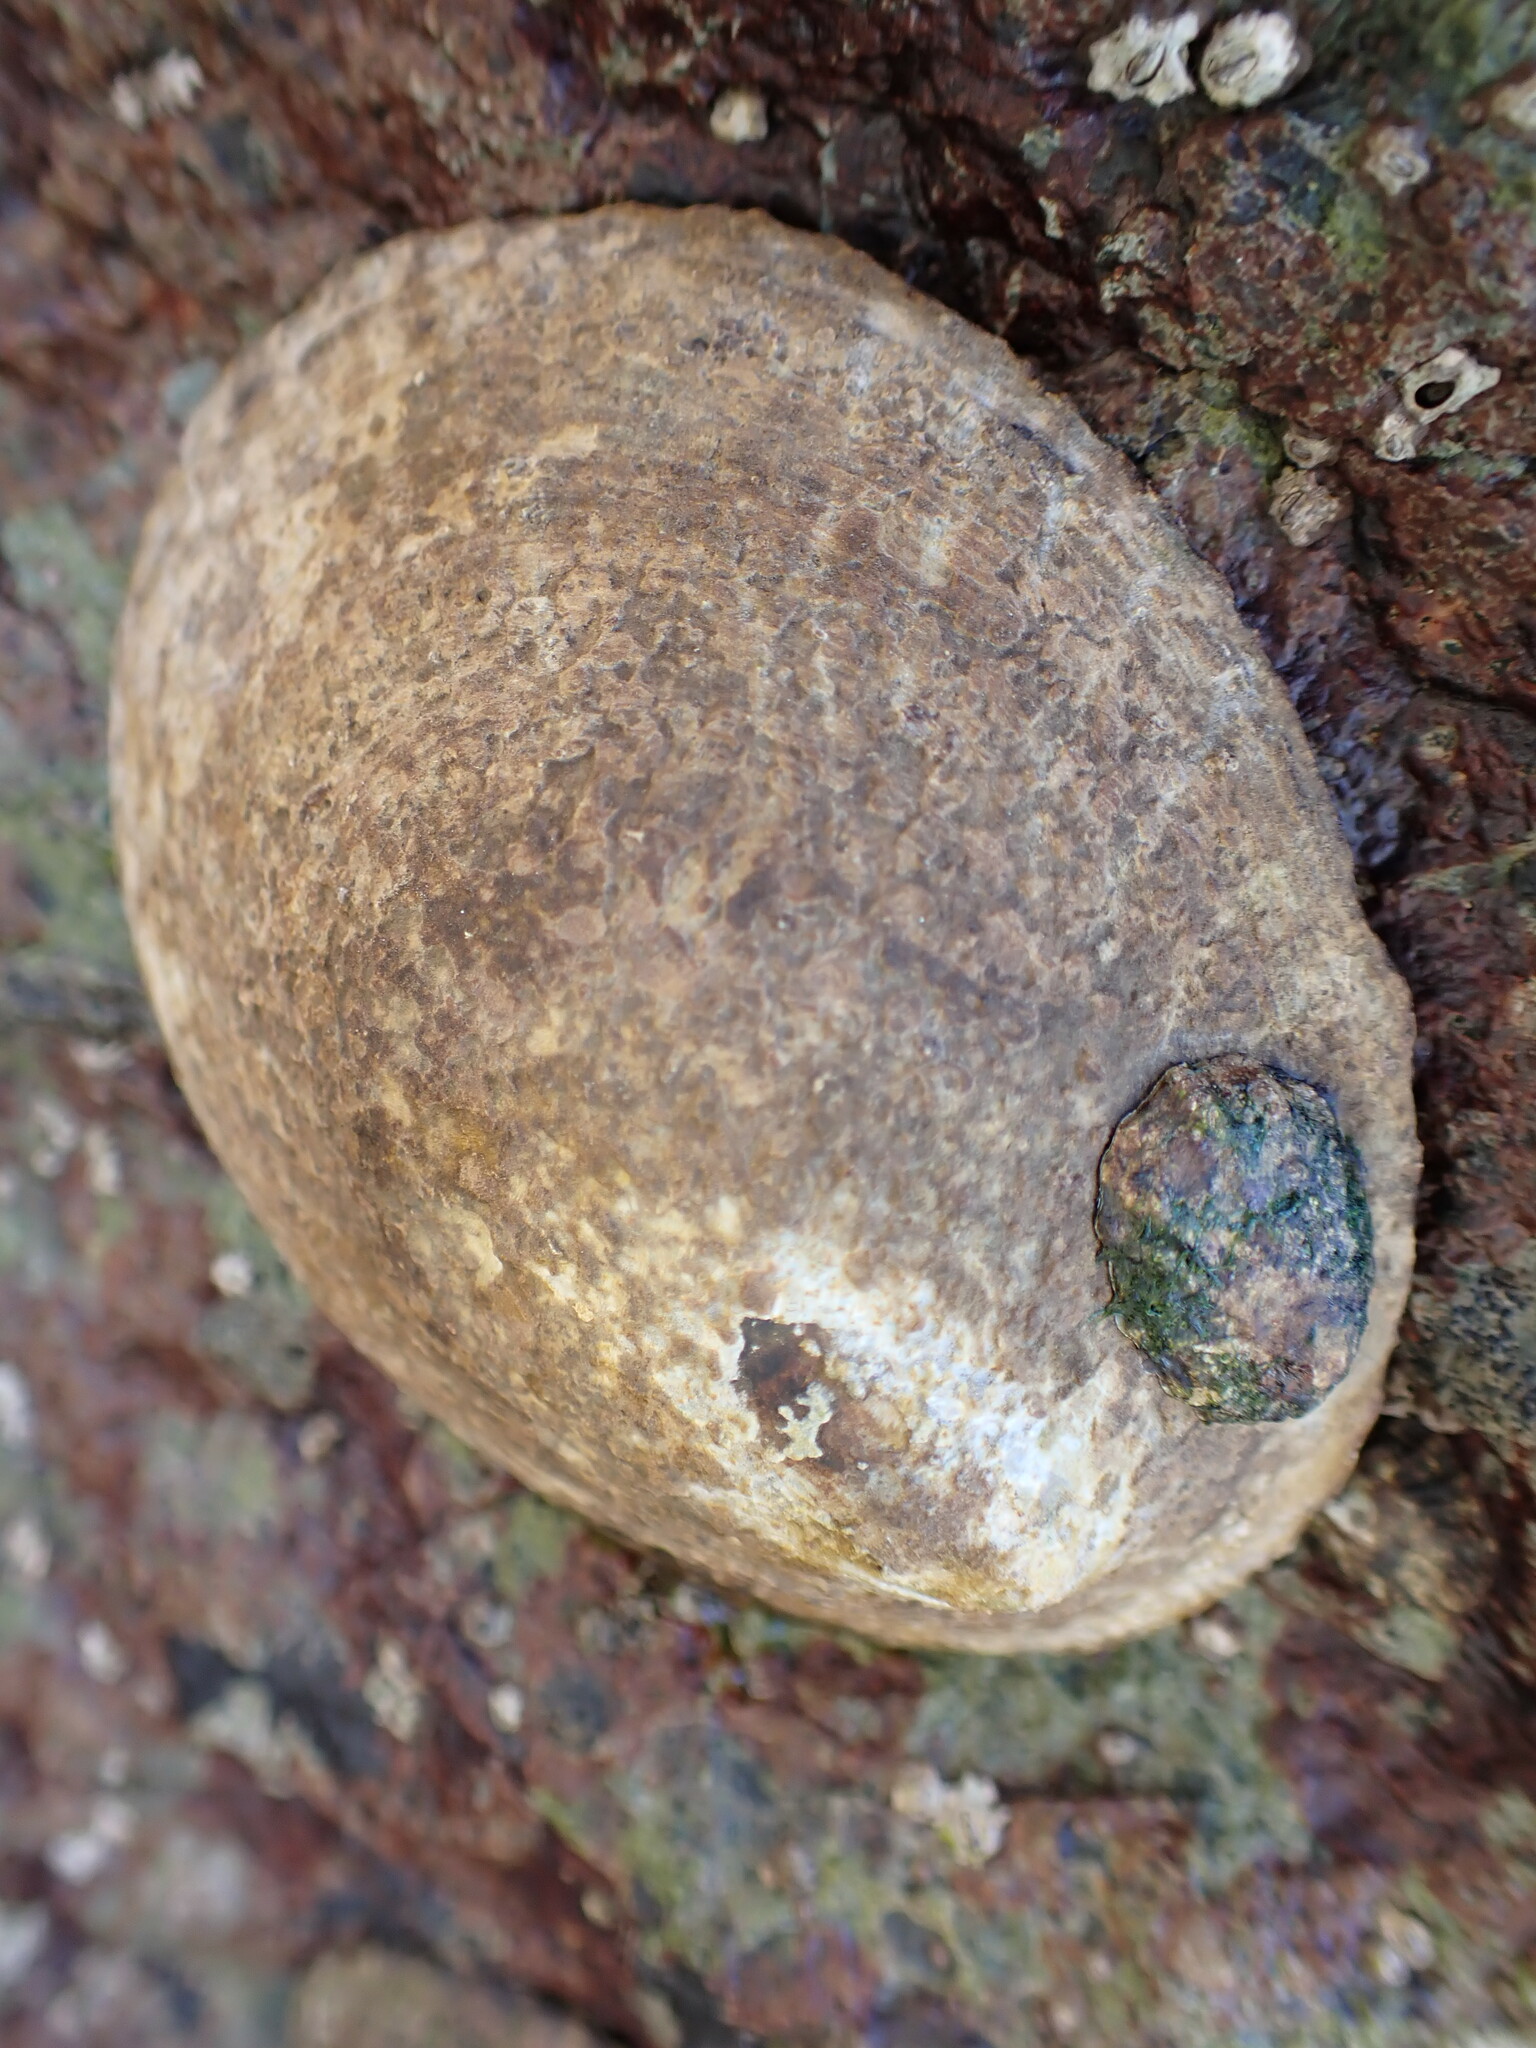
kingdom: Animalia
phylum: Mollusca
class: Gastropoda
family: Lottiidae
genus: Lottia
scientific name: Lottia gigantea
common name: Owl limpet
